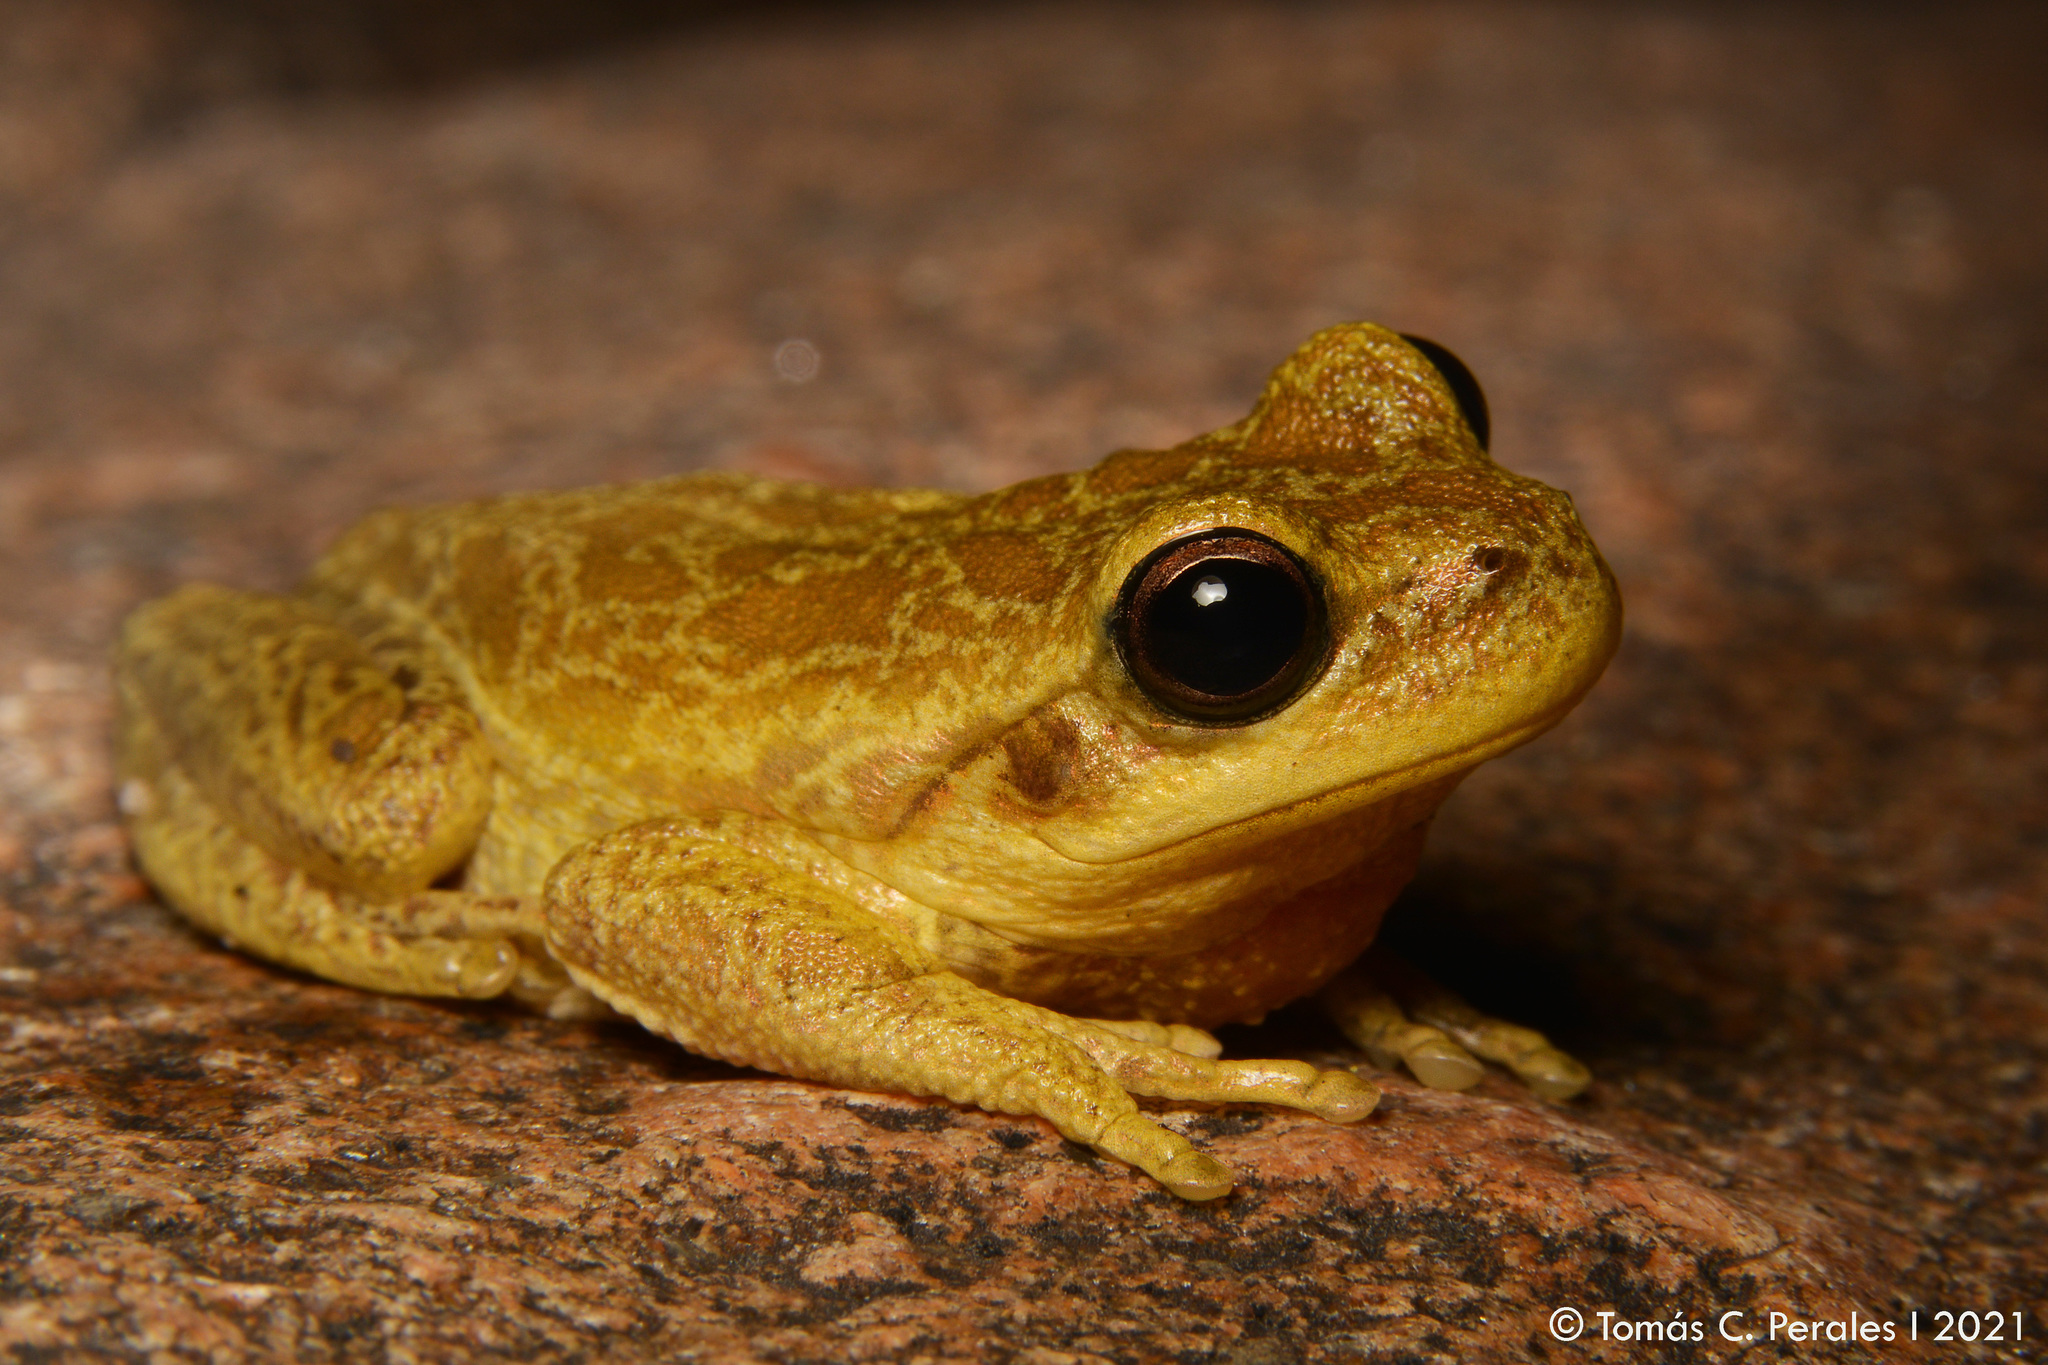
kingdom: Animalia
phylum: Chordata
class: Amphibia
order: Anura
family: Hylidae
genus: Boana
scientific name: Boana cordobae
